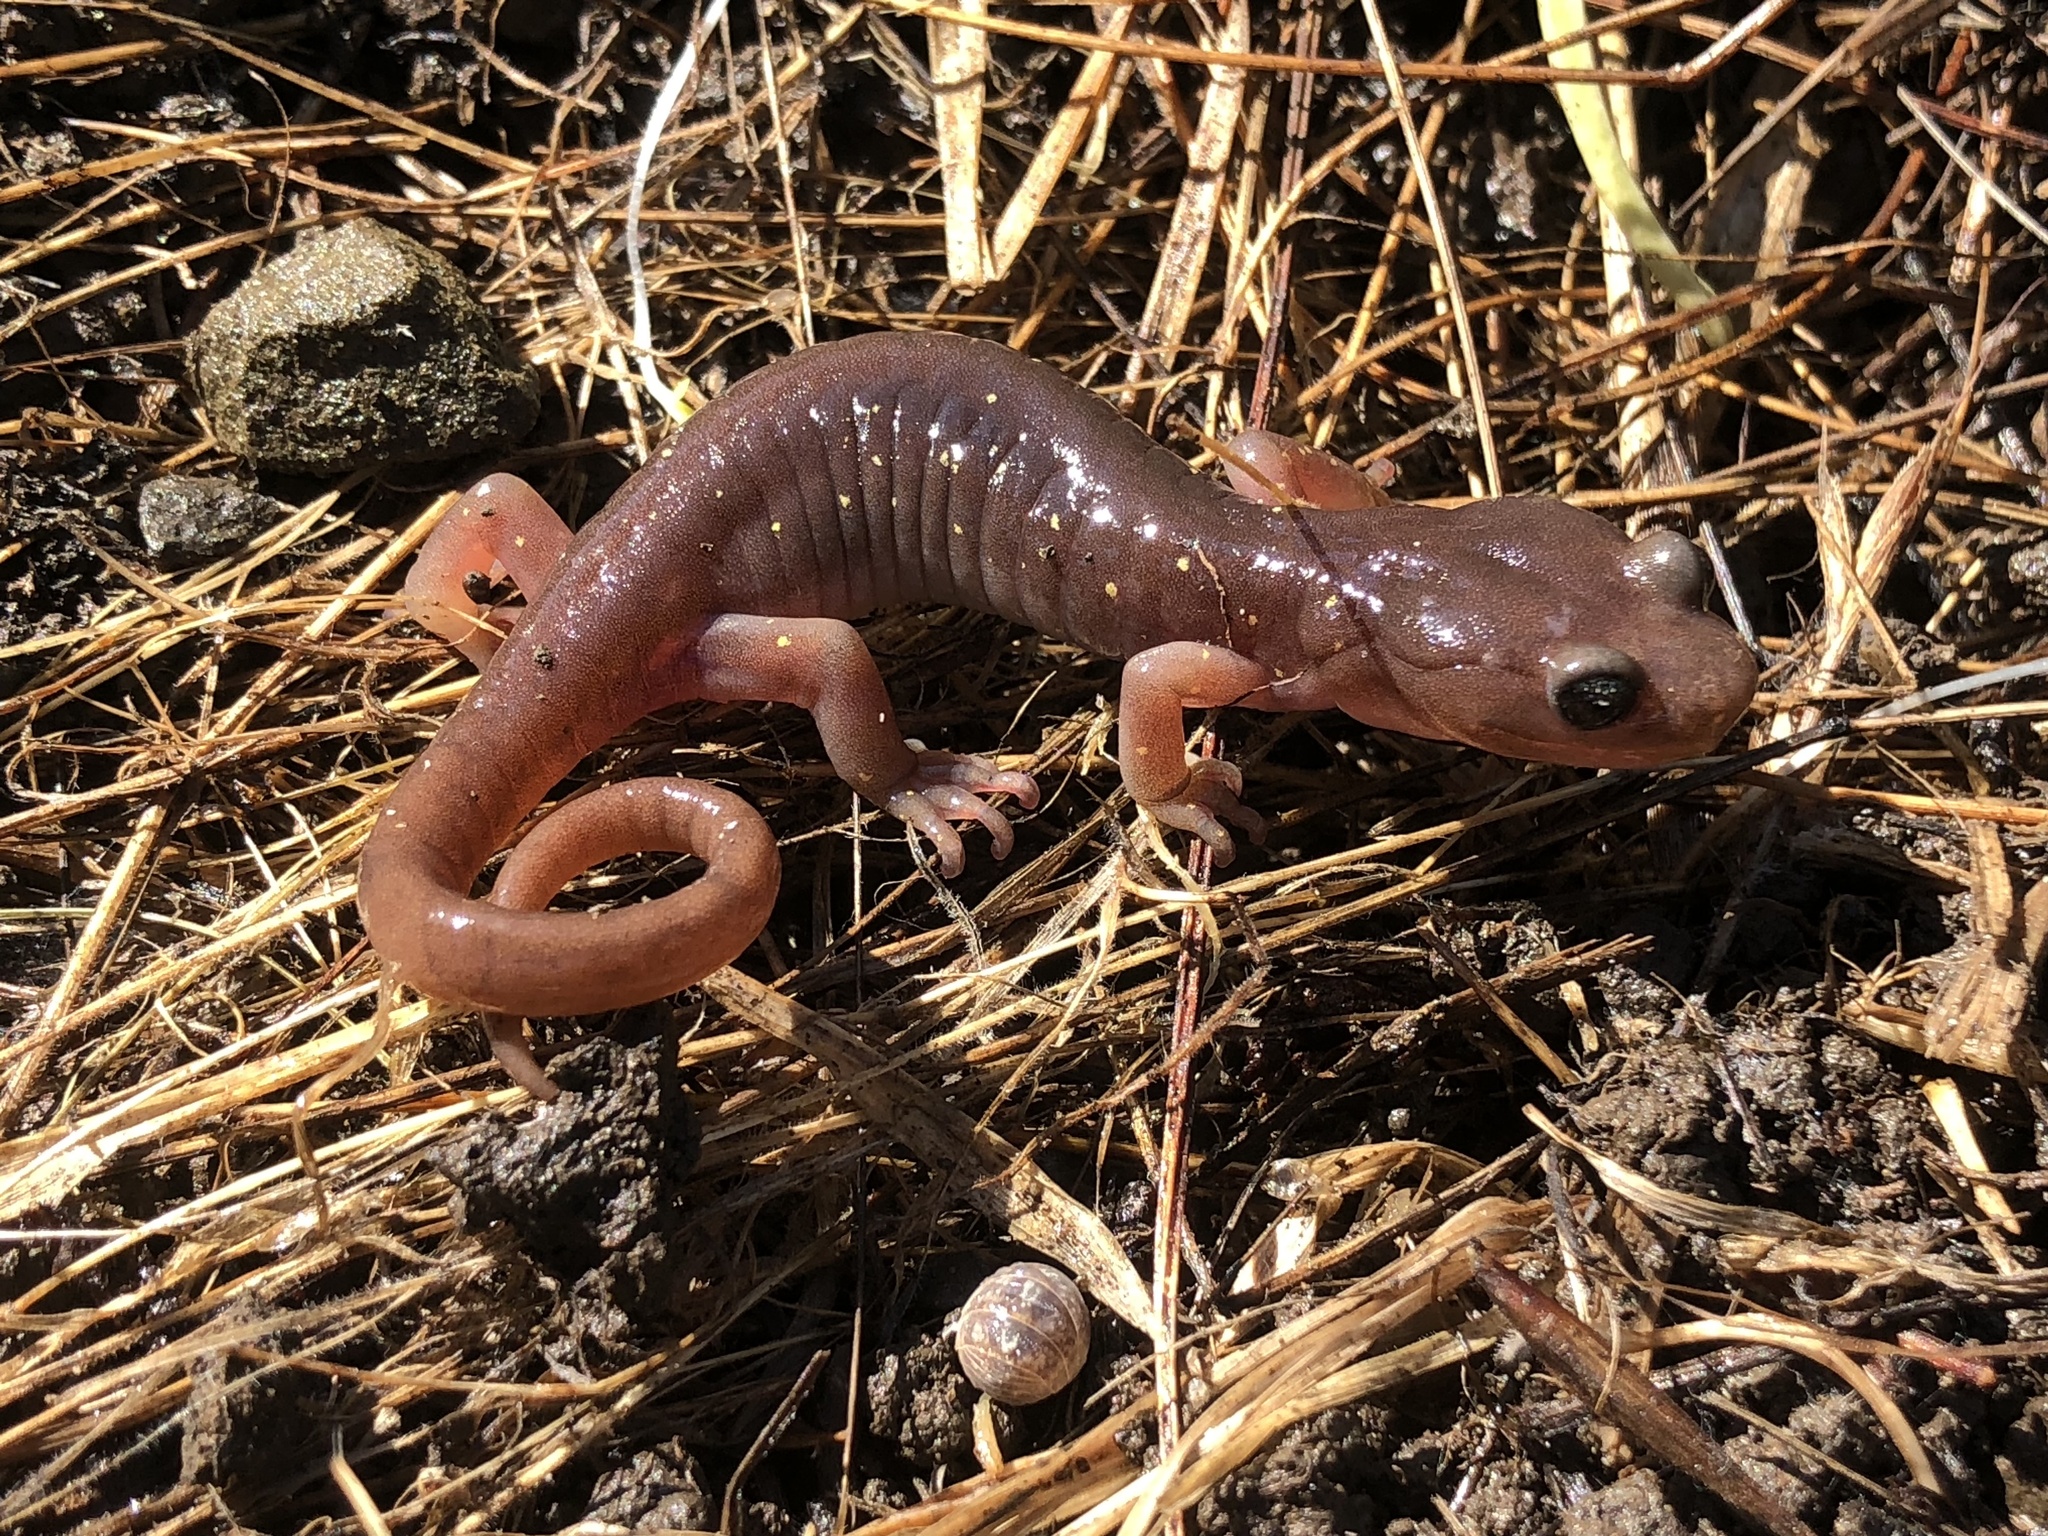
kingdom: Animalia
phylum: Chordata
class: Amphibia
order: Caudata
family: Plethodontidae
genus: Aneides
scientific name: Aneides lugubris
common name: Arboreal salamander
